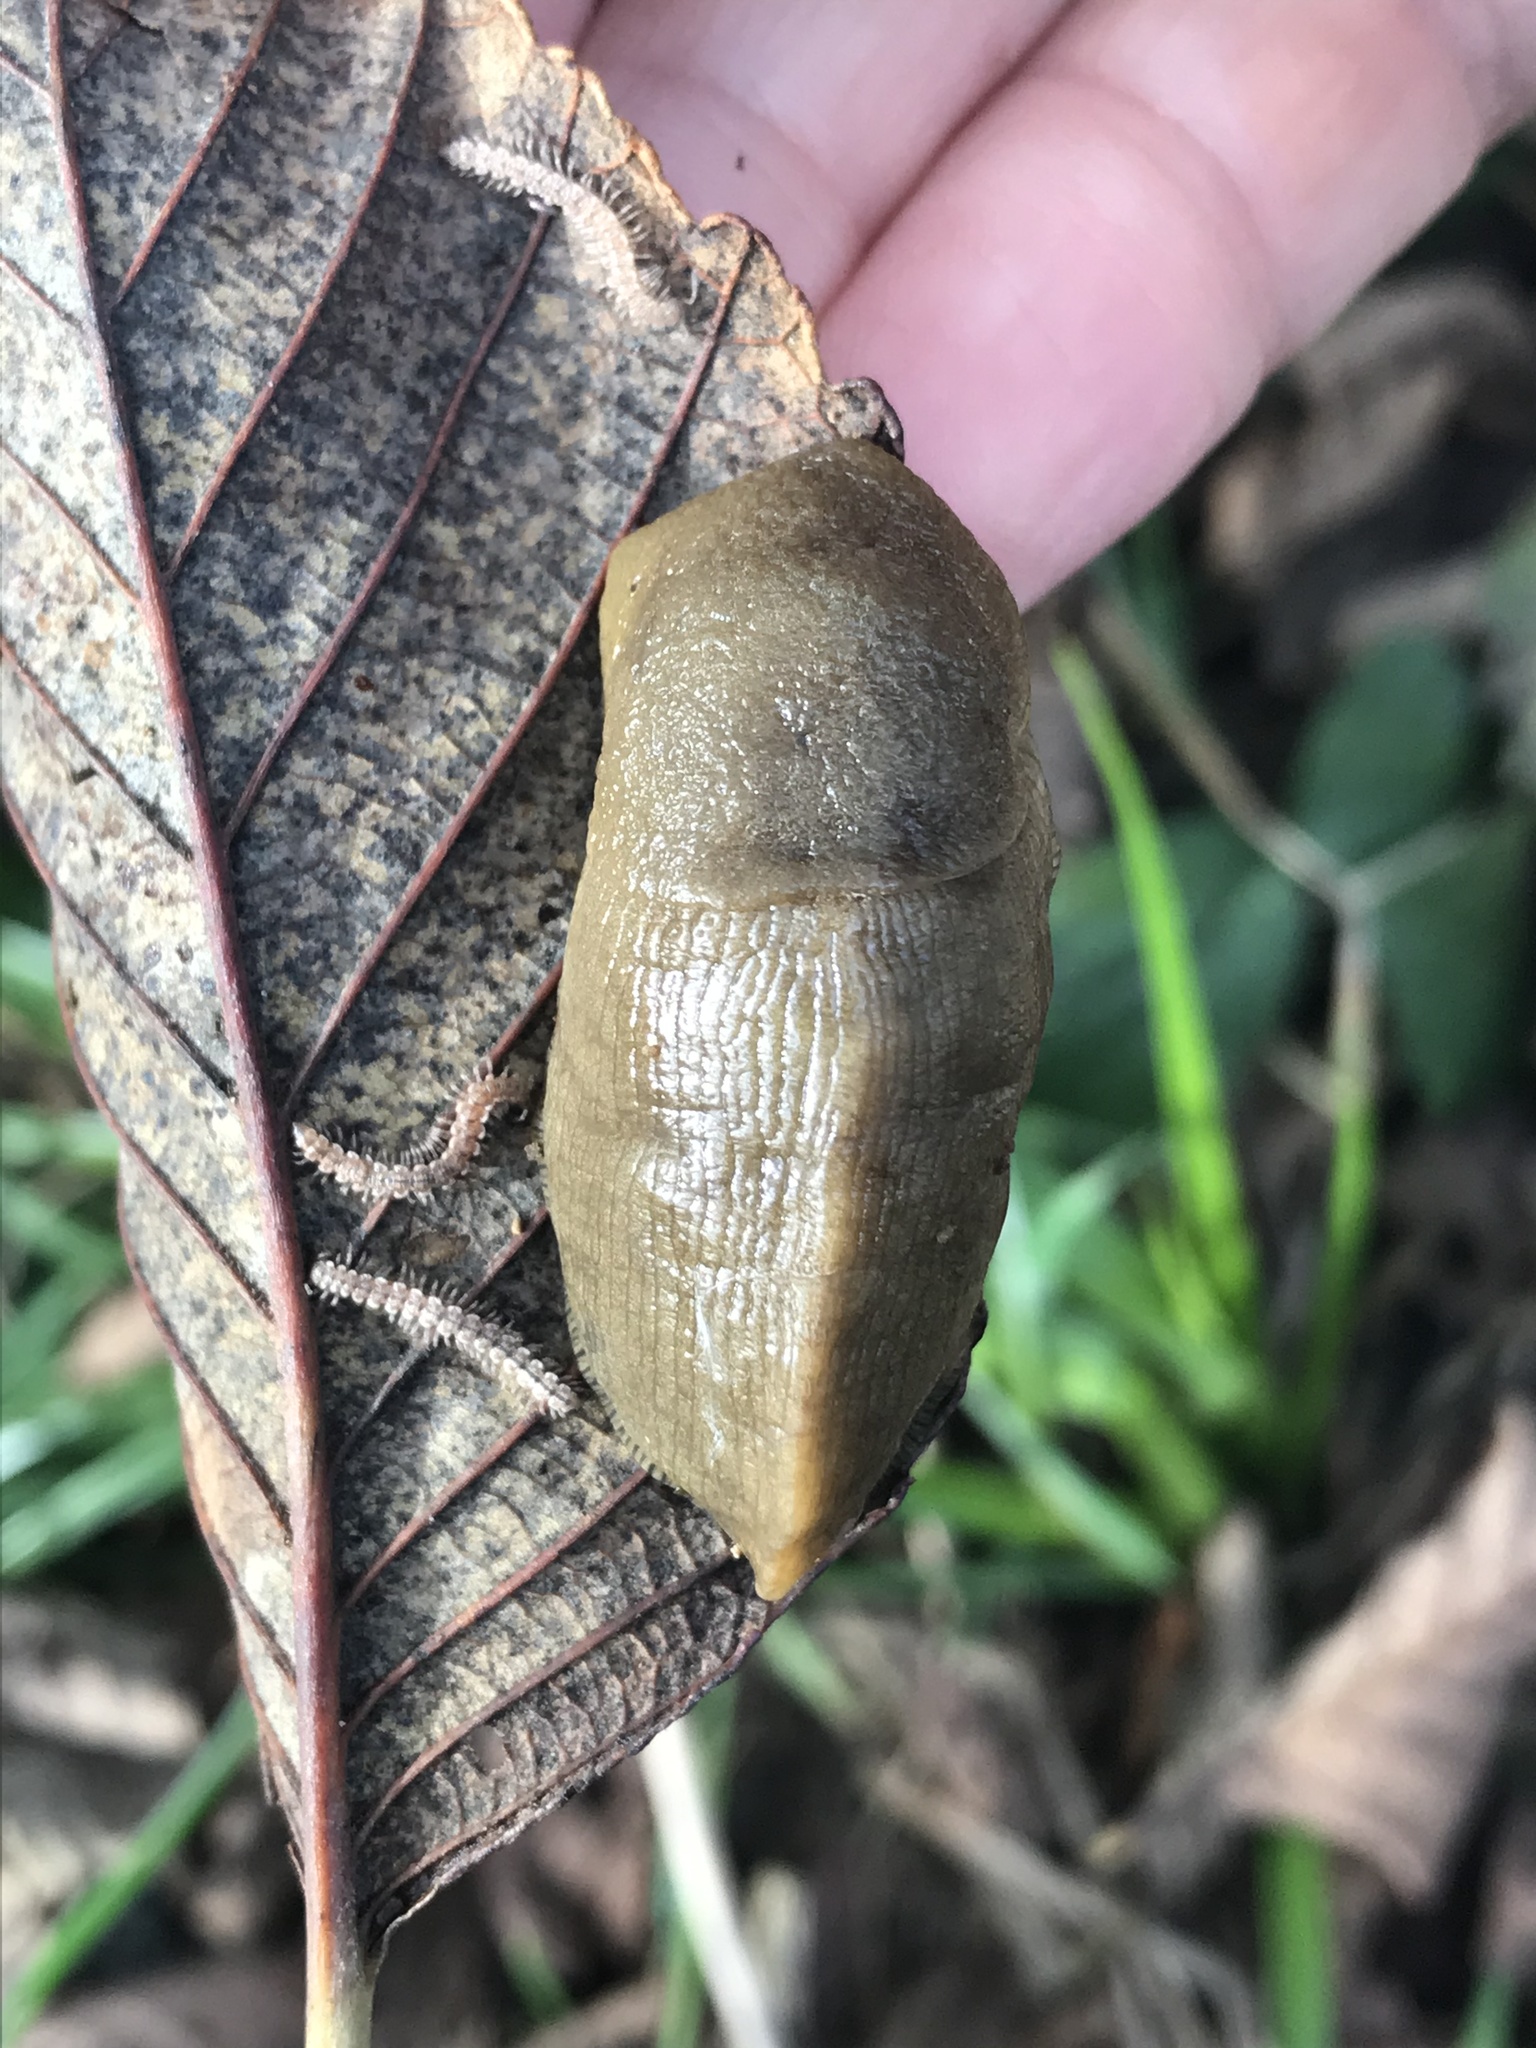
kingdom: Animalia
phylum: Mollusca
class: Gastropoda
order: Stylommatophora
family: Ariolimacidae
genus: Ariolimax
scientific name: Ariolimax buttoni
